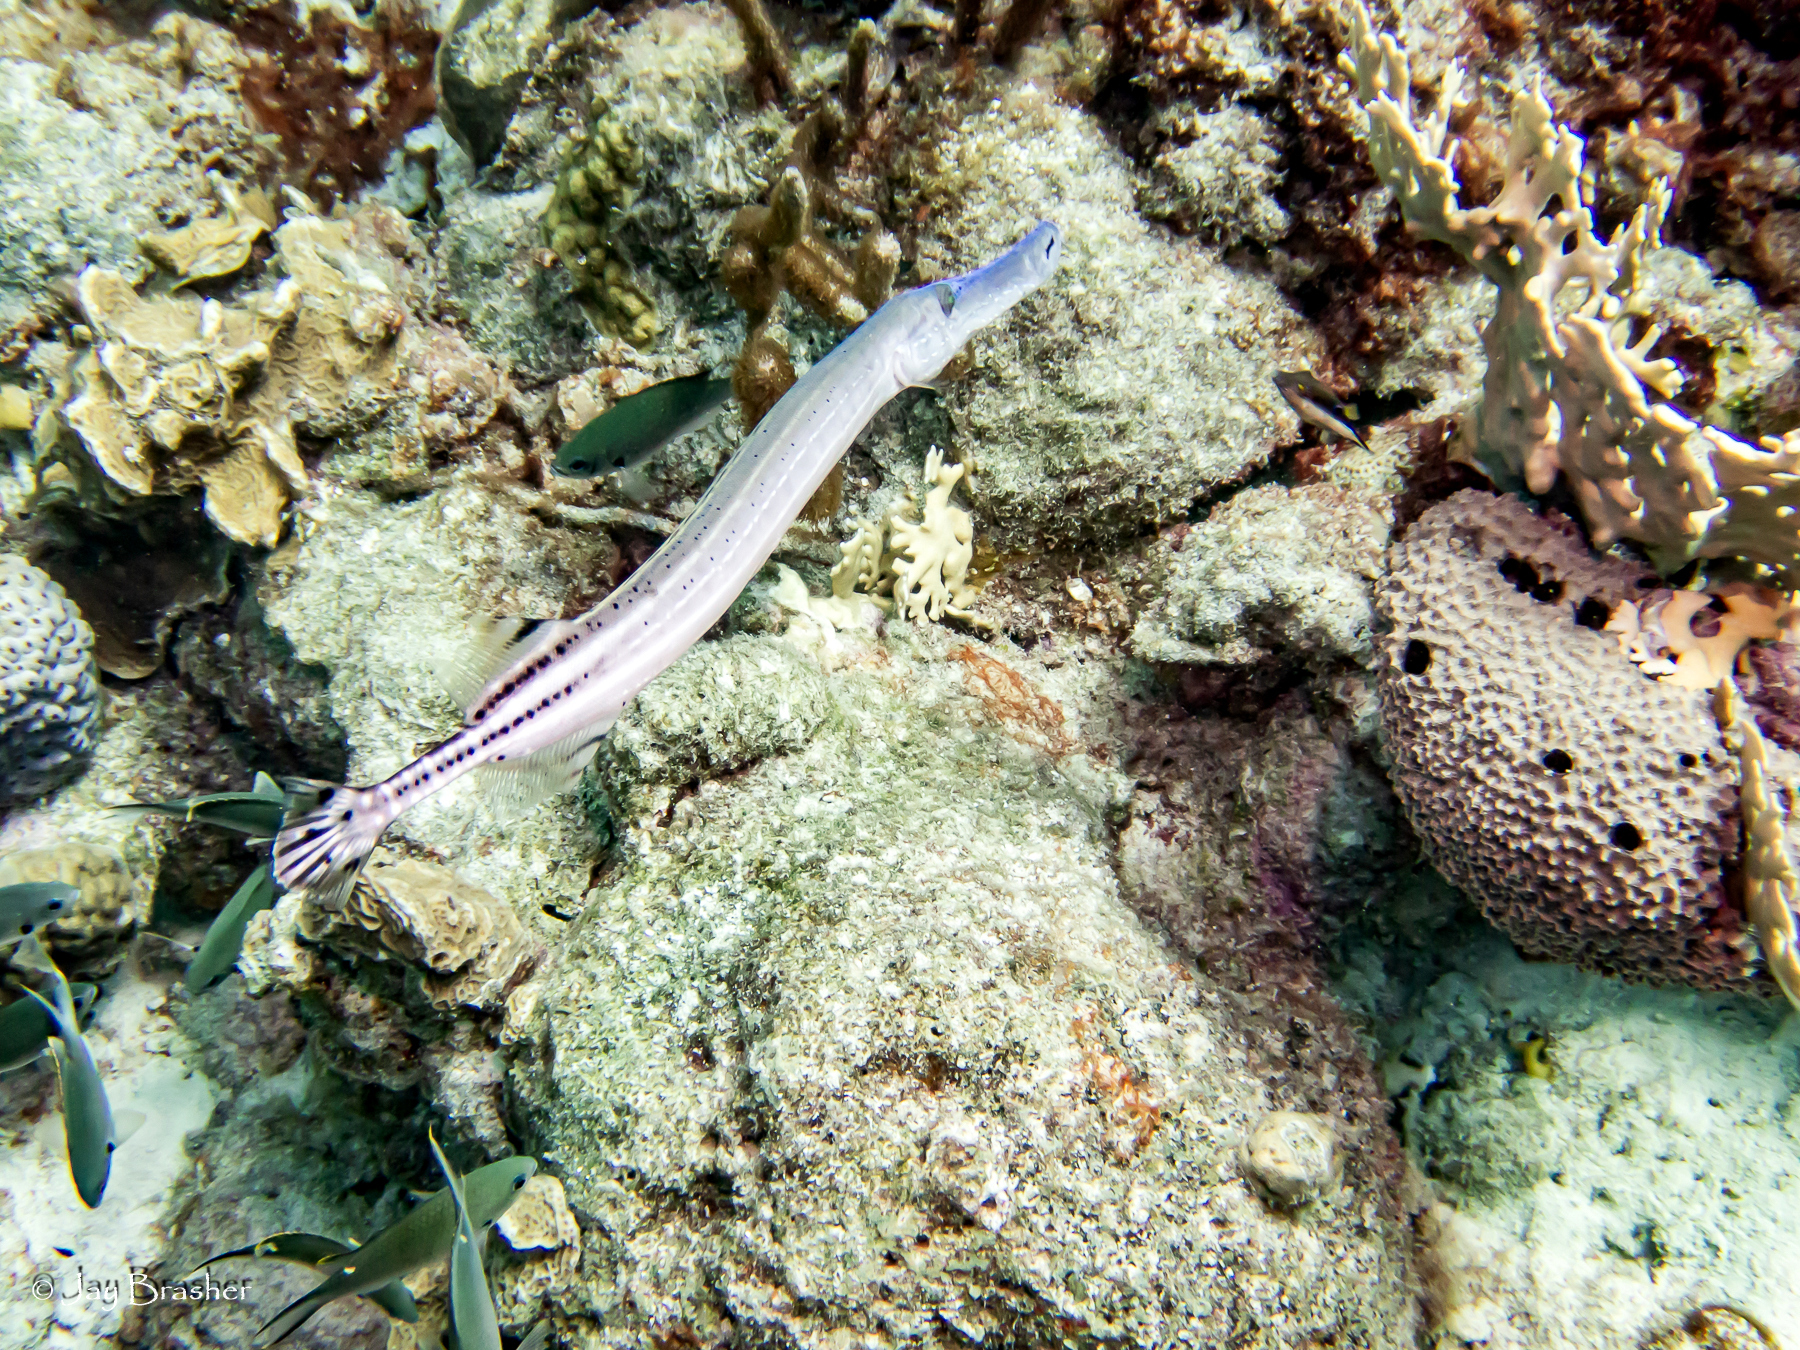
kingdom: Animalia
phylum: Chordata
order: Syngnathiformes
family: Aulostomidae
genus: Aulostomus
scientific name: Aulostomus maculatus
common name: West atlantic trumpetfish
